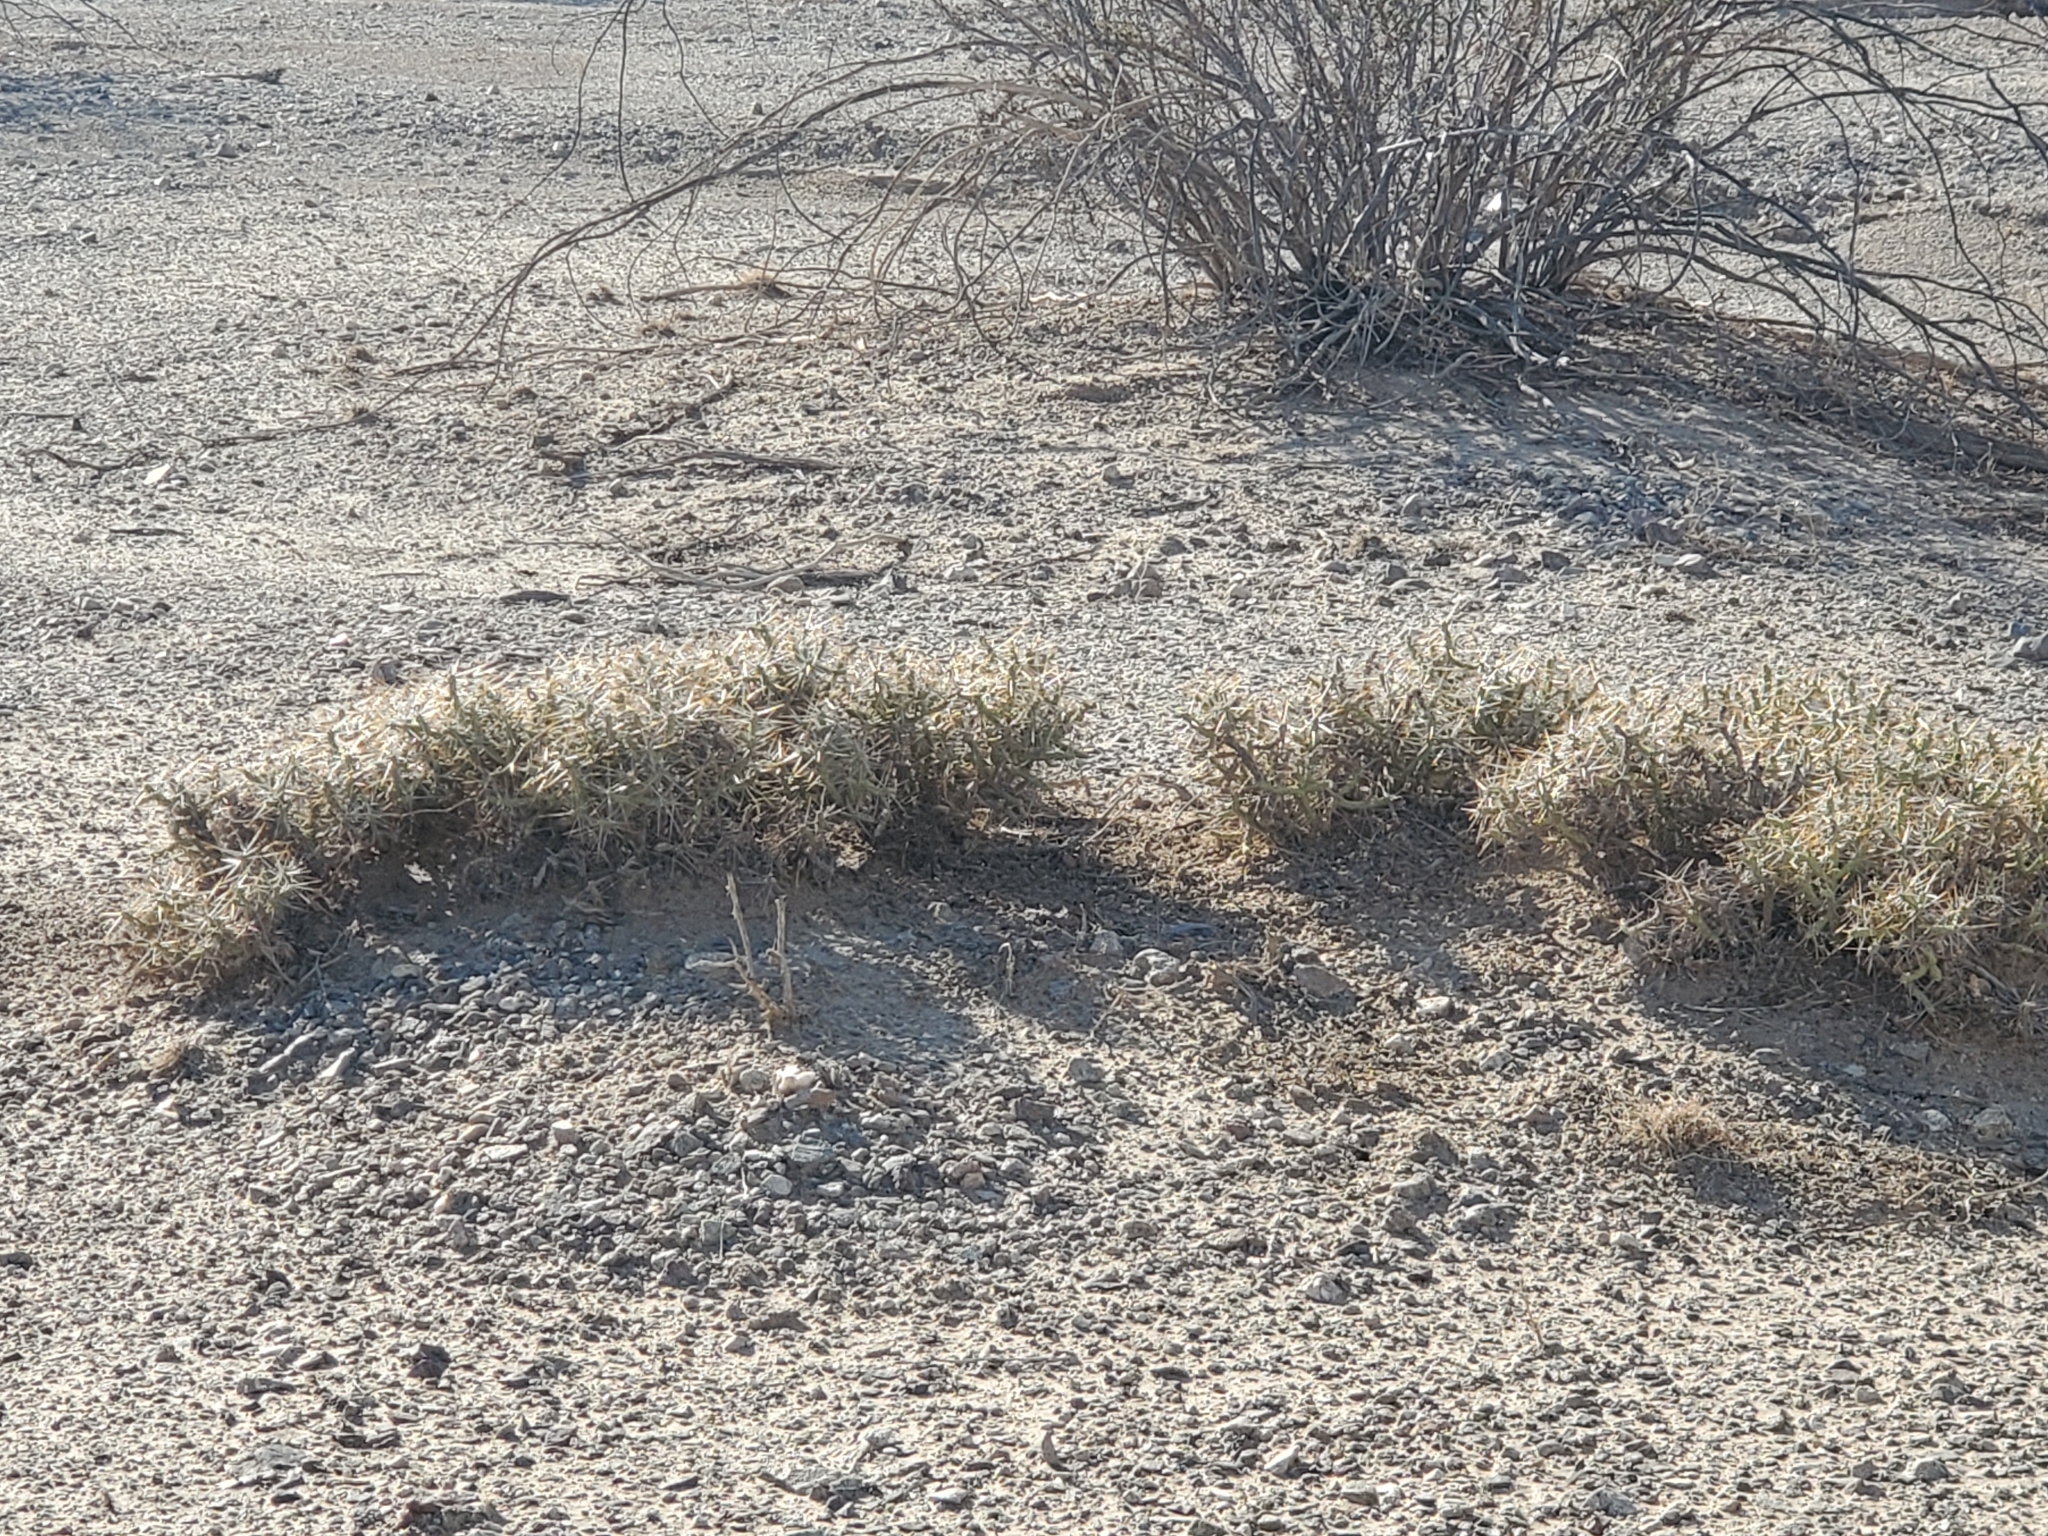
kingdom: Plantae
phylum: Tracheophyta
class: Magnoliopsida
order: Caryophyllales
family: Cactaceae
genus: Cylindropuntia
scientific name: Cylindropuntia ramosissima
